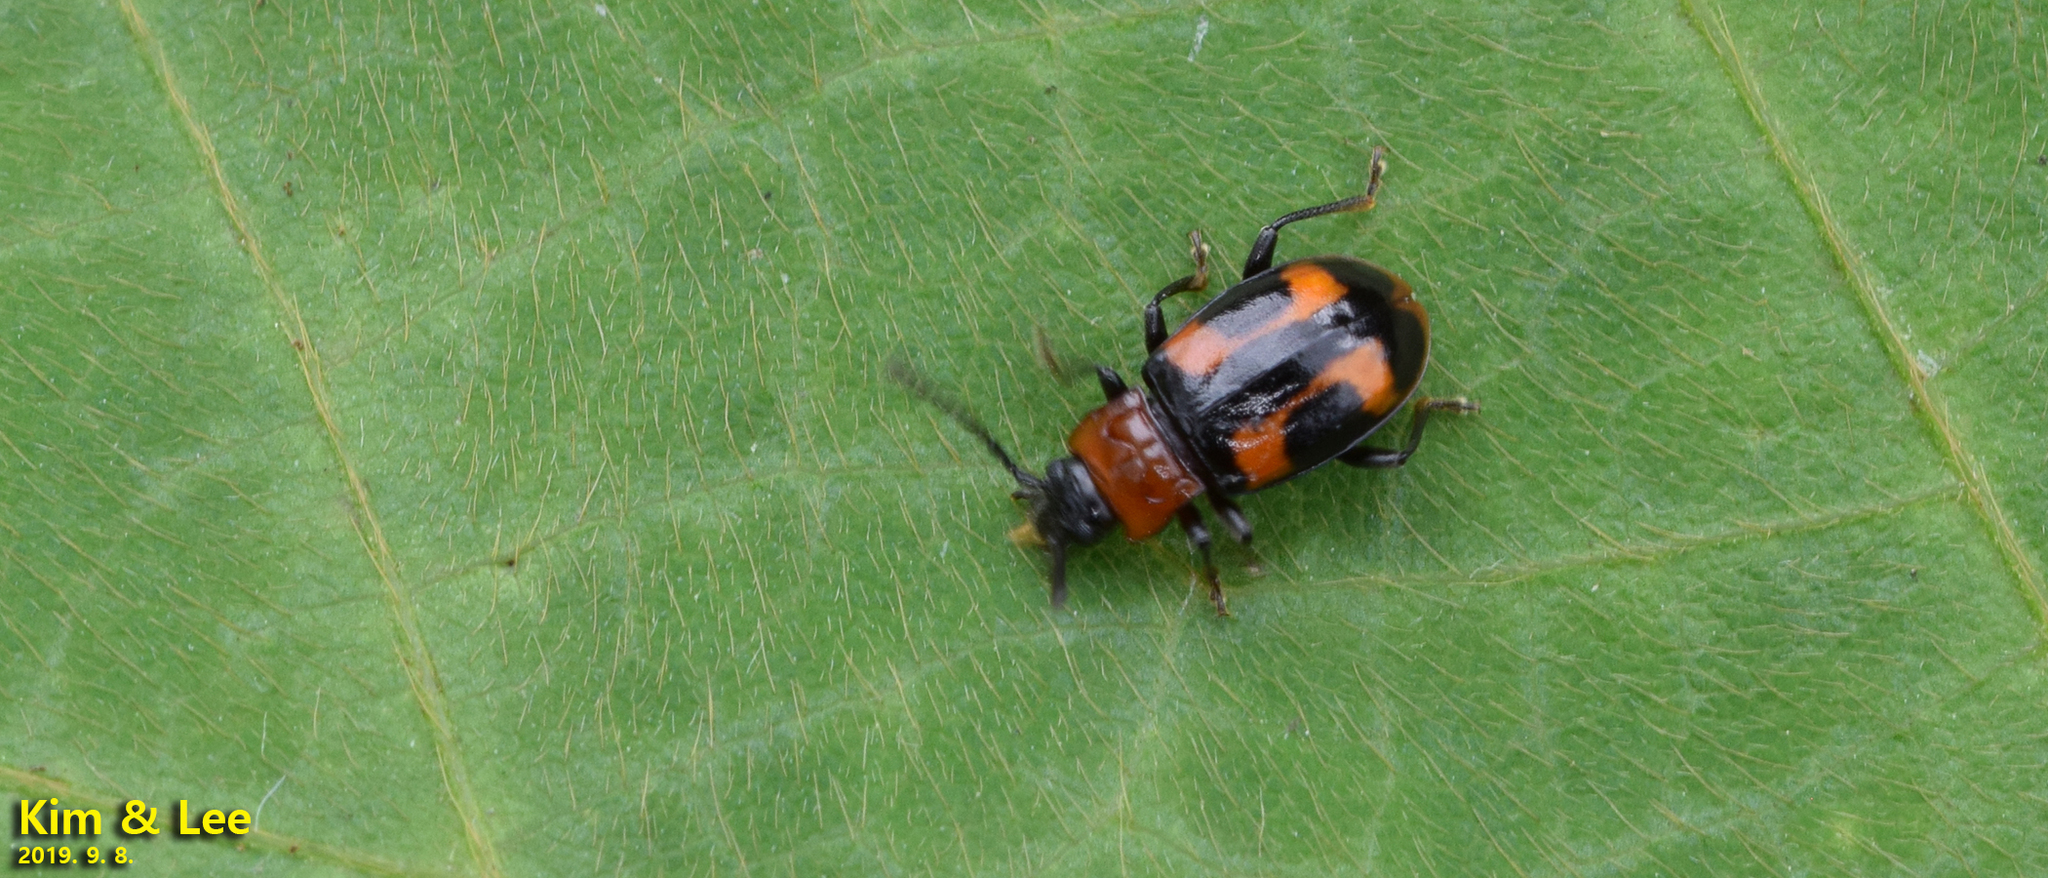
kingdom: Animalia
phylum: Arthropoda
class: Insecta
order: Coleoptera
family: Endomychidae
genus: Ancylopus
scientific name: Ancylopus pictus
